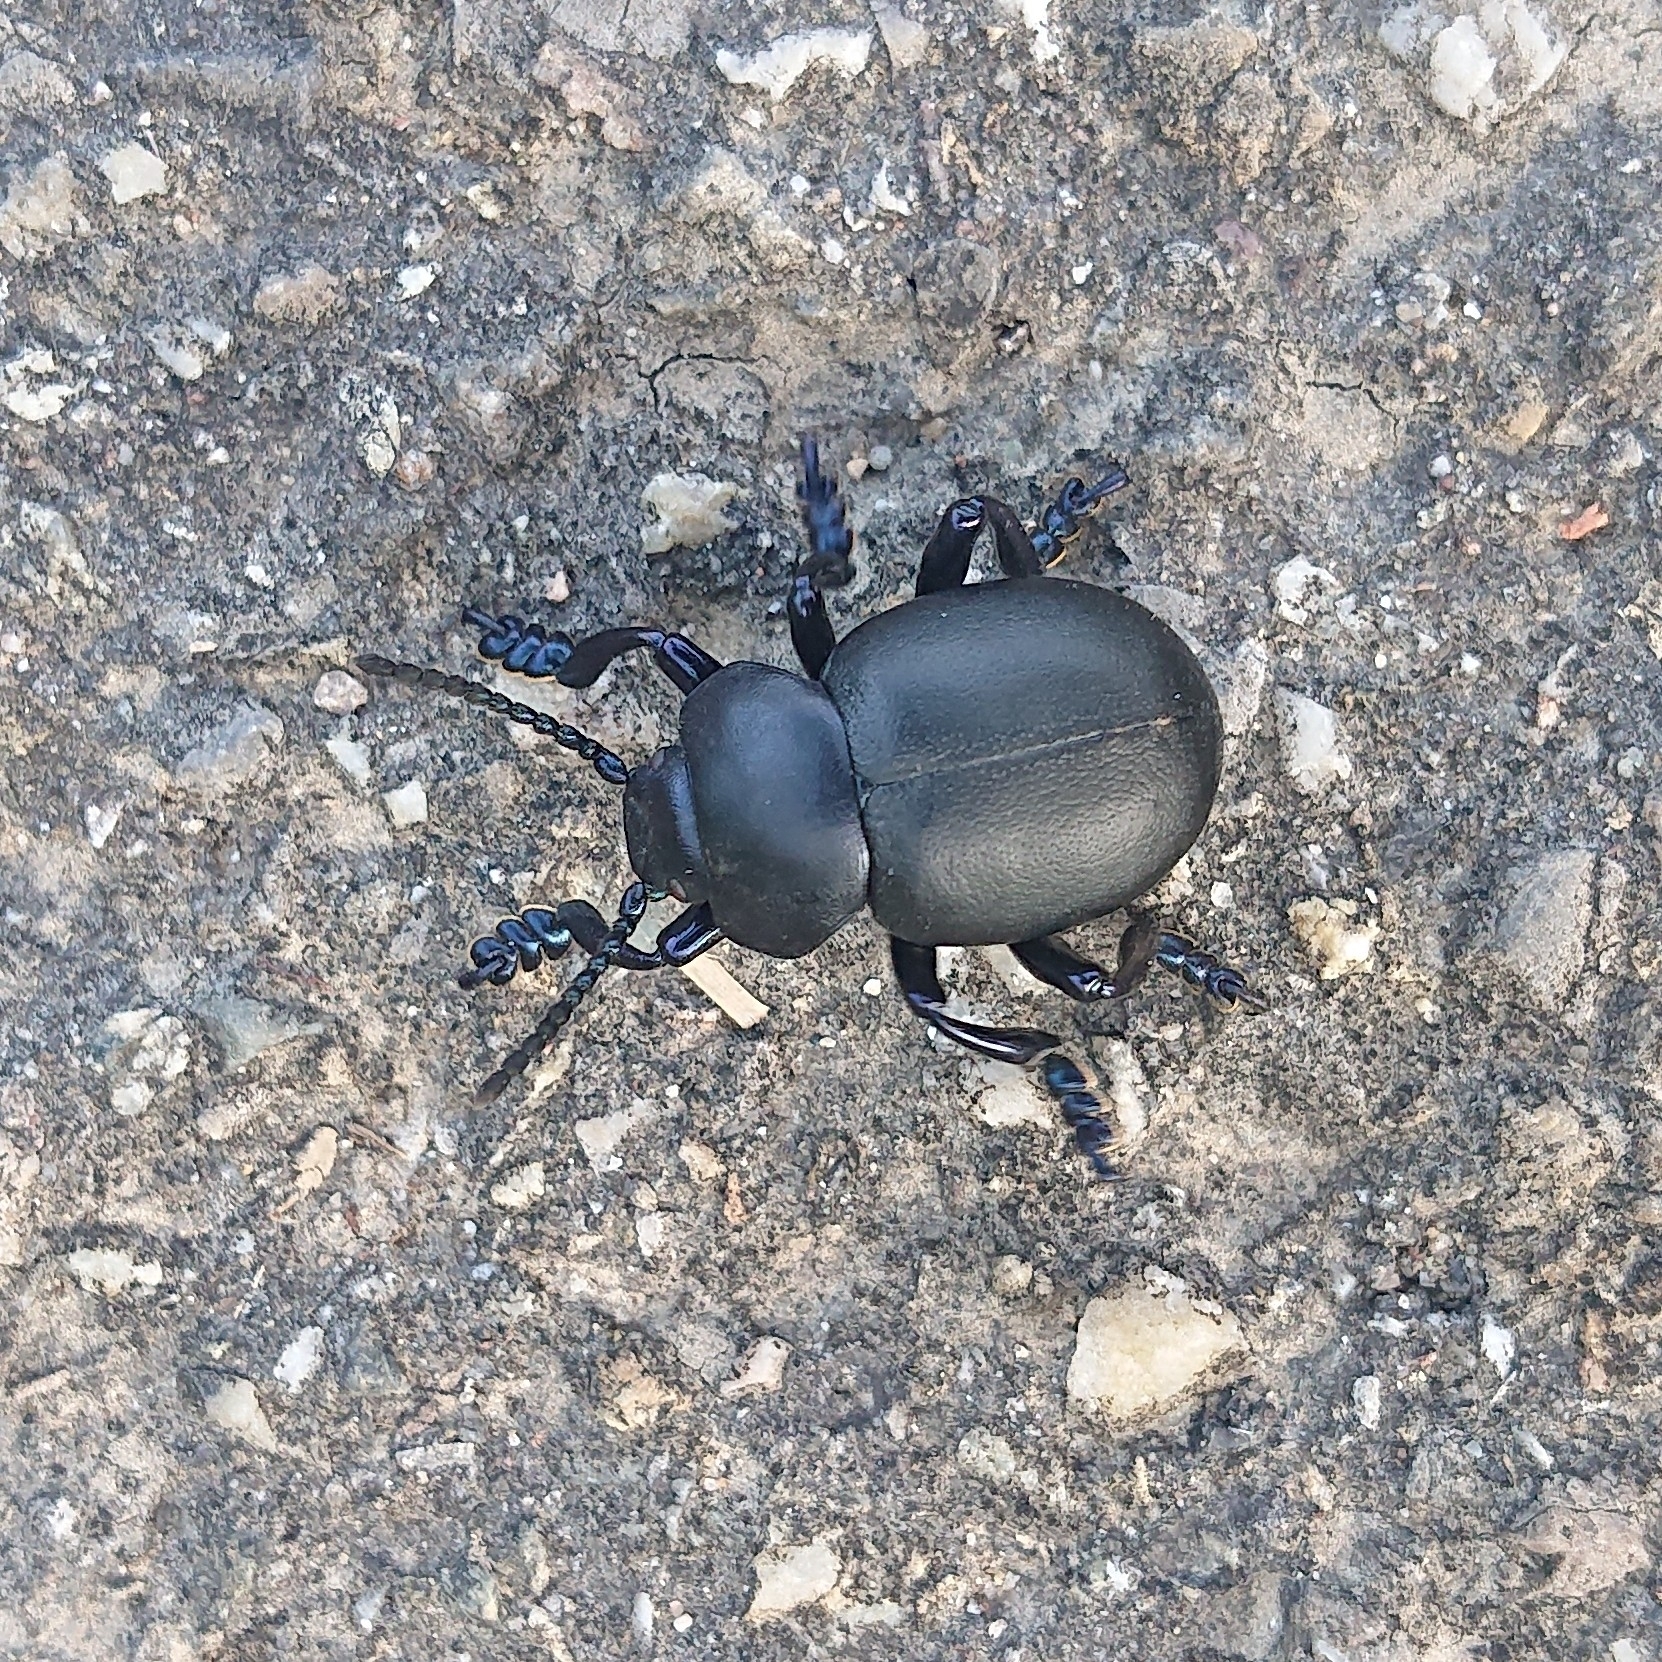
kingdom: Animalia
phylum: Arthropoda
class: Insecta
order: Coleoptera
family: Chrysomelidae
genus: Timarcha
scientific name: Timarcha tenebricosa
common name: Bloody-nosed beetle
